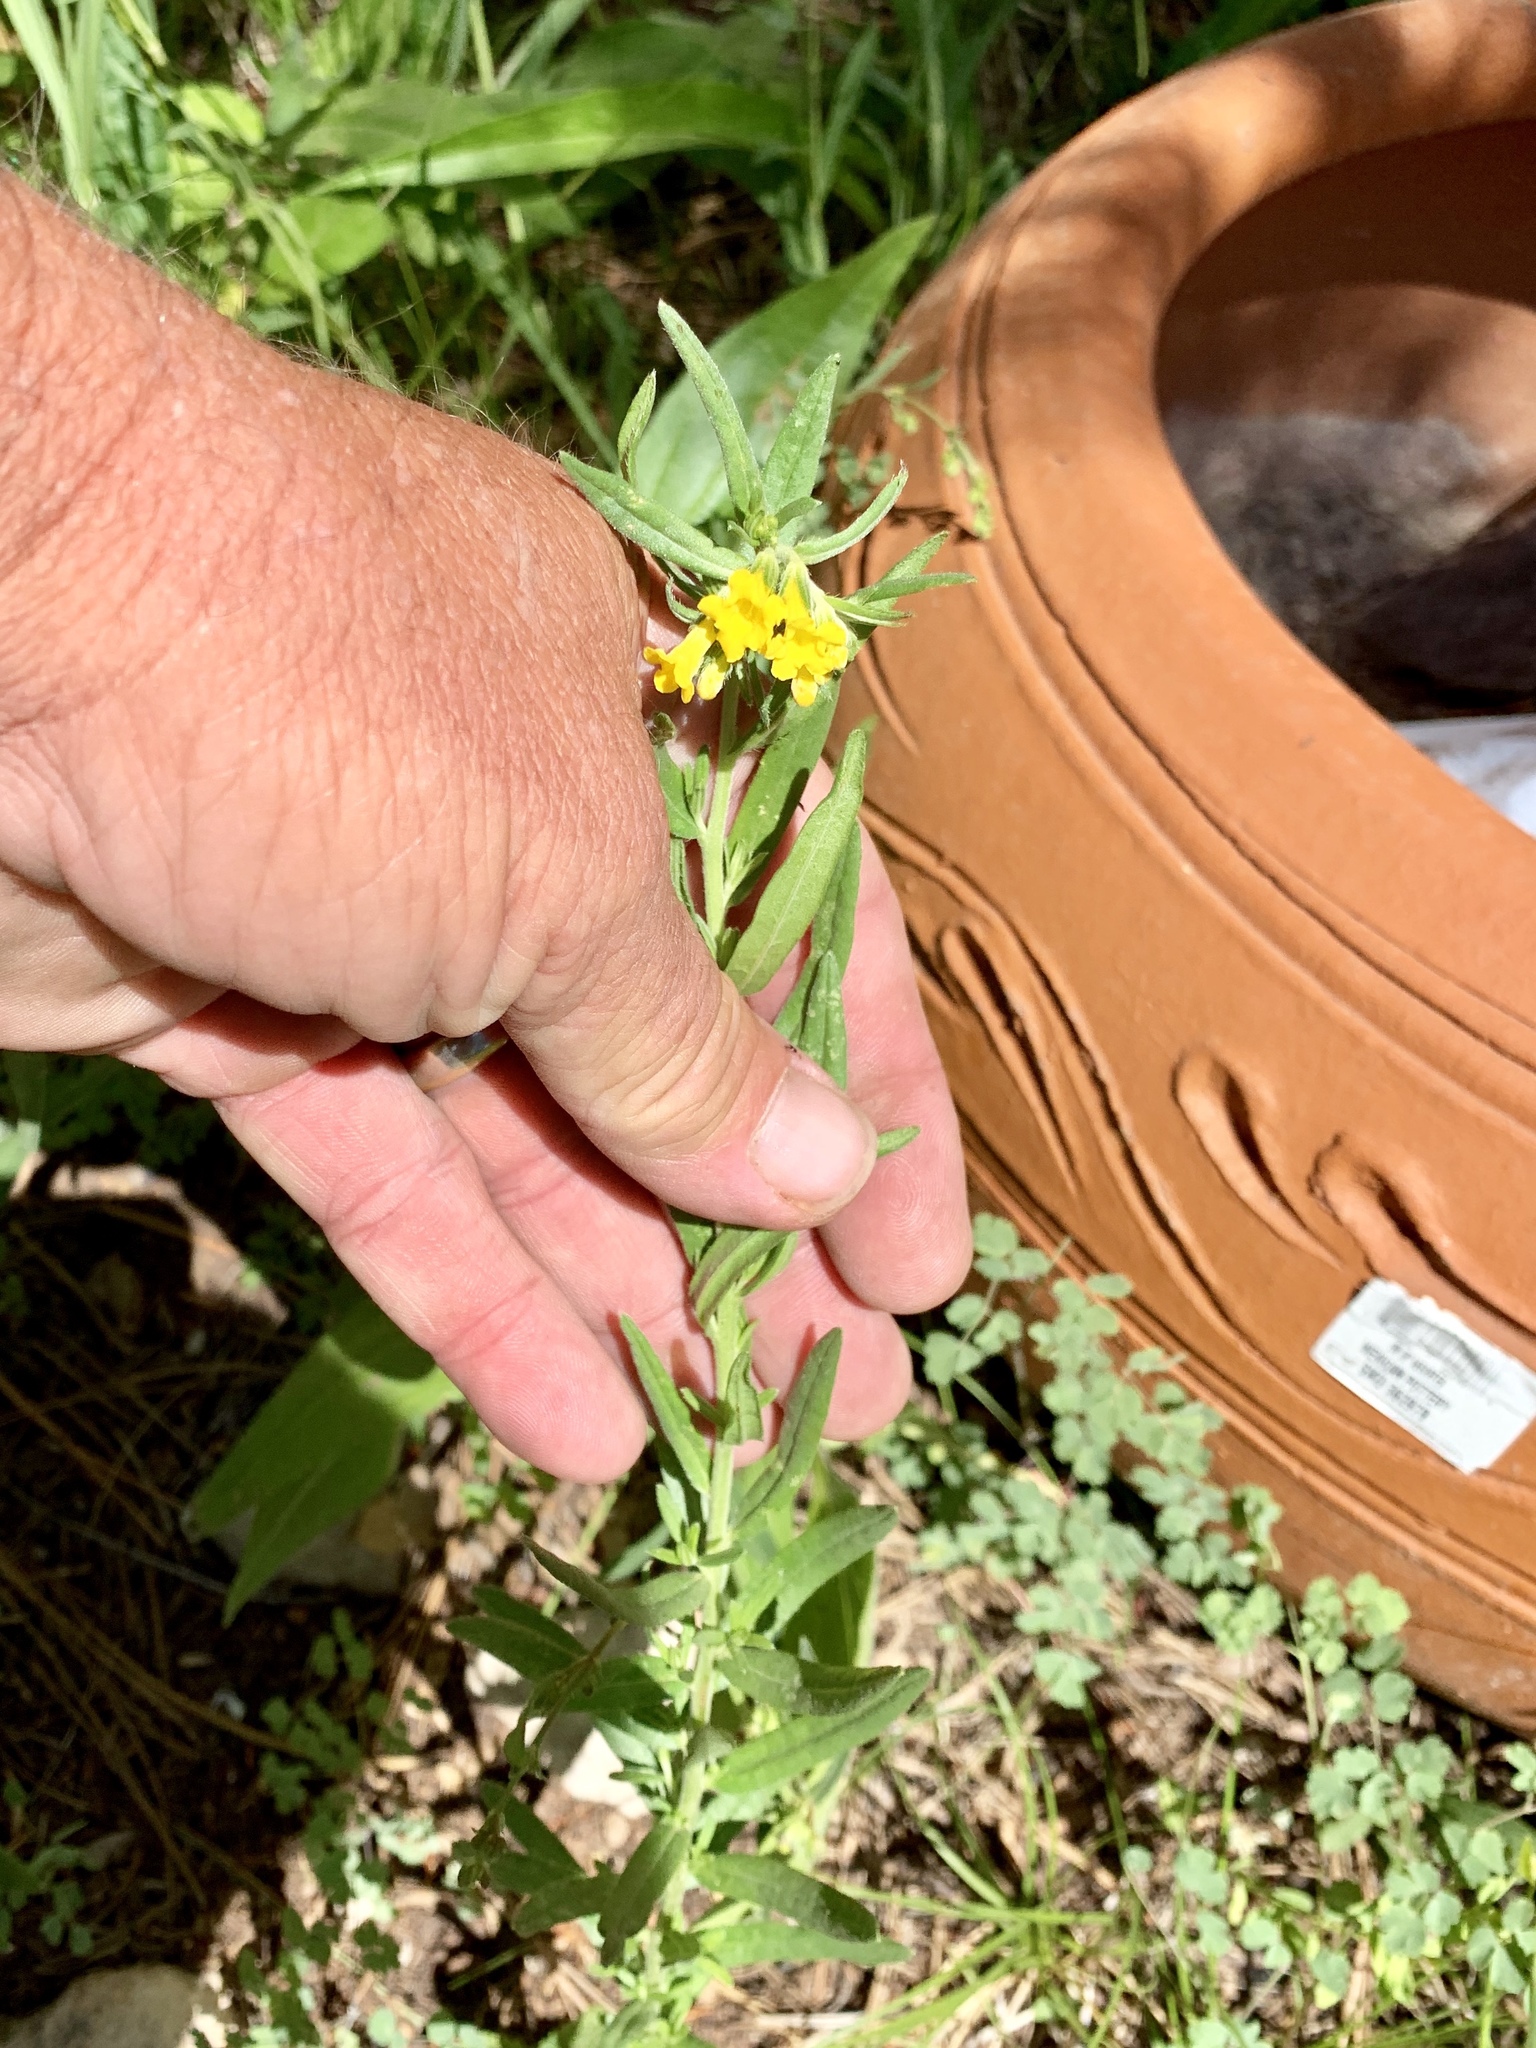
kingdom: Plantae
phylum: Tracheophyta
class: Magnoliopsida
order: Boraginales
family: Boraginaceae
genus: Lithospermum
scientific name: Lithospermum multiflorum
